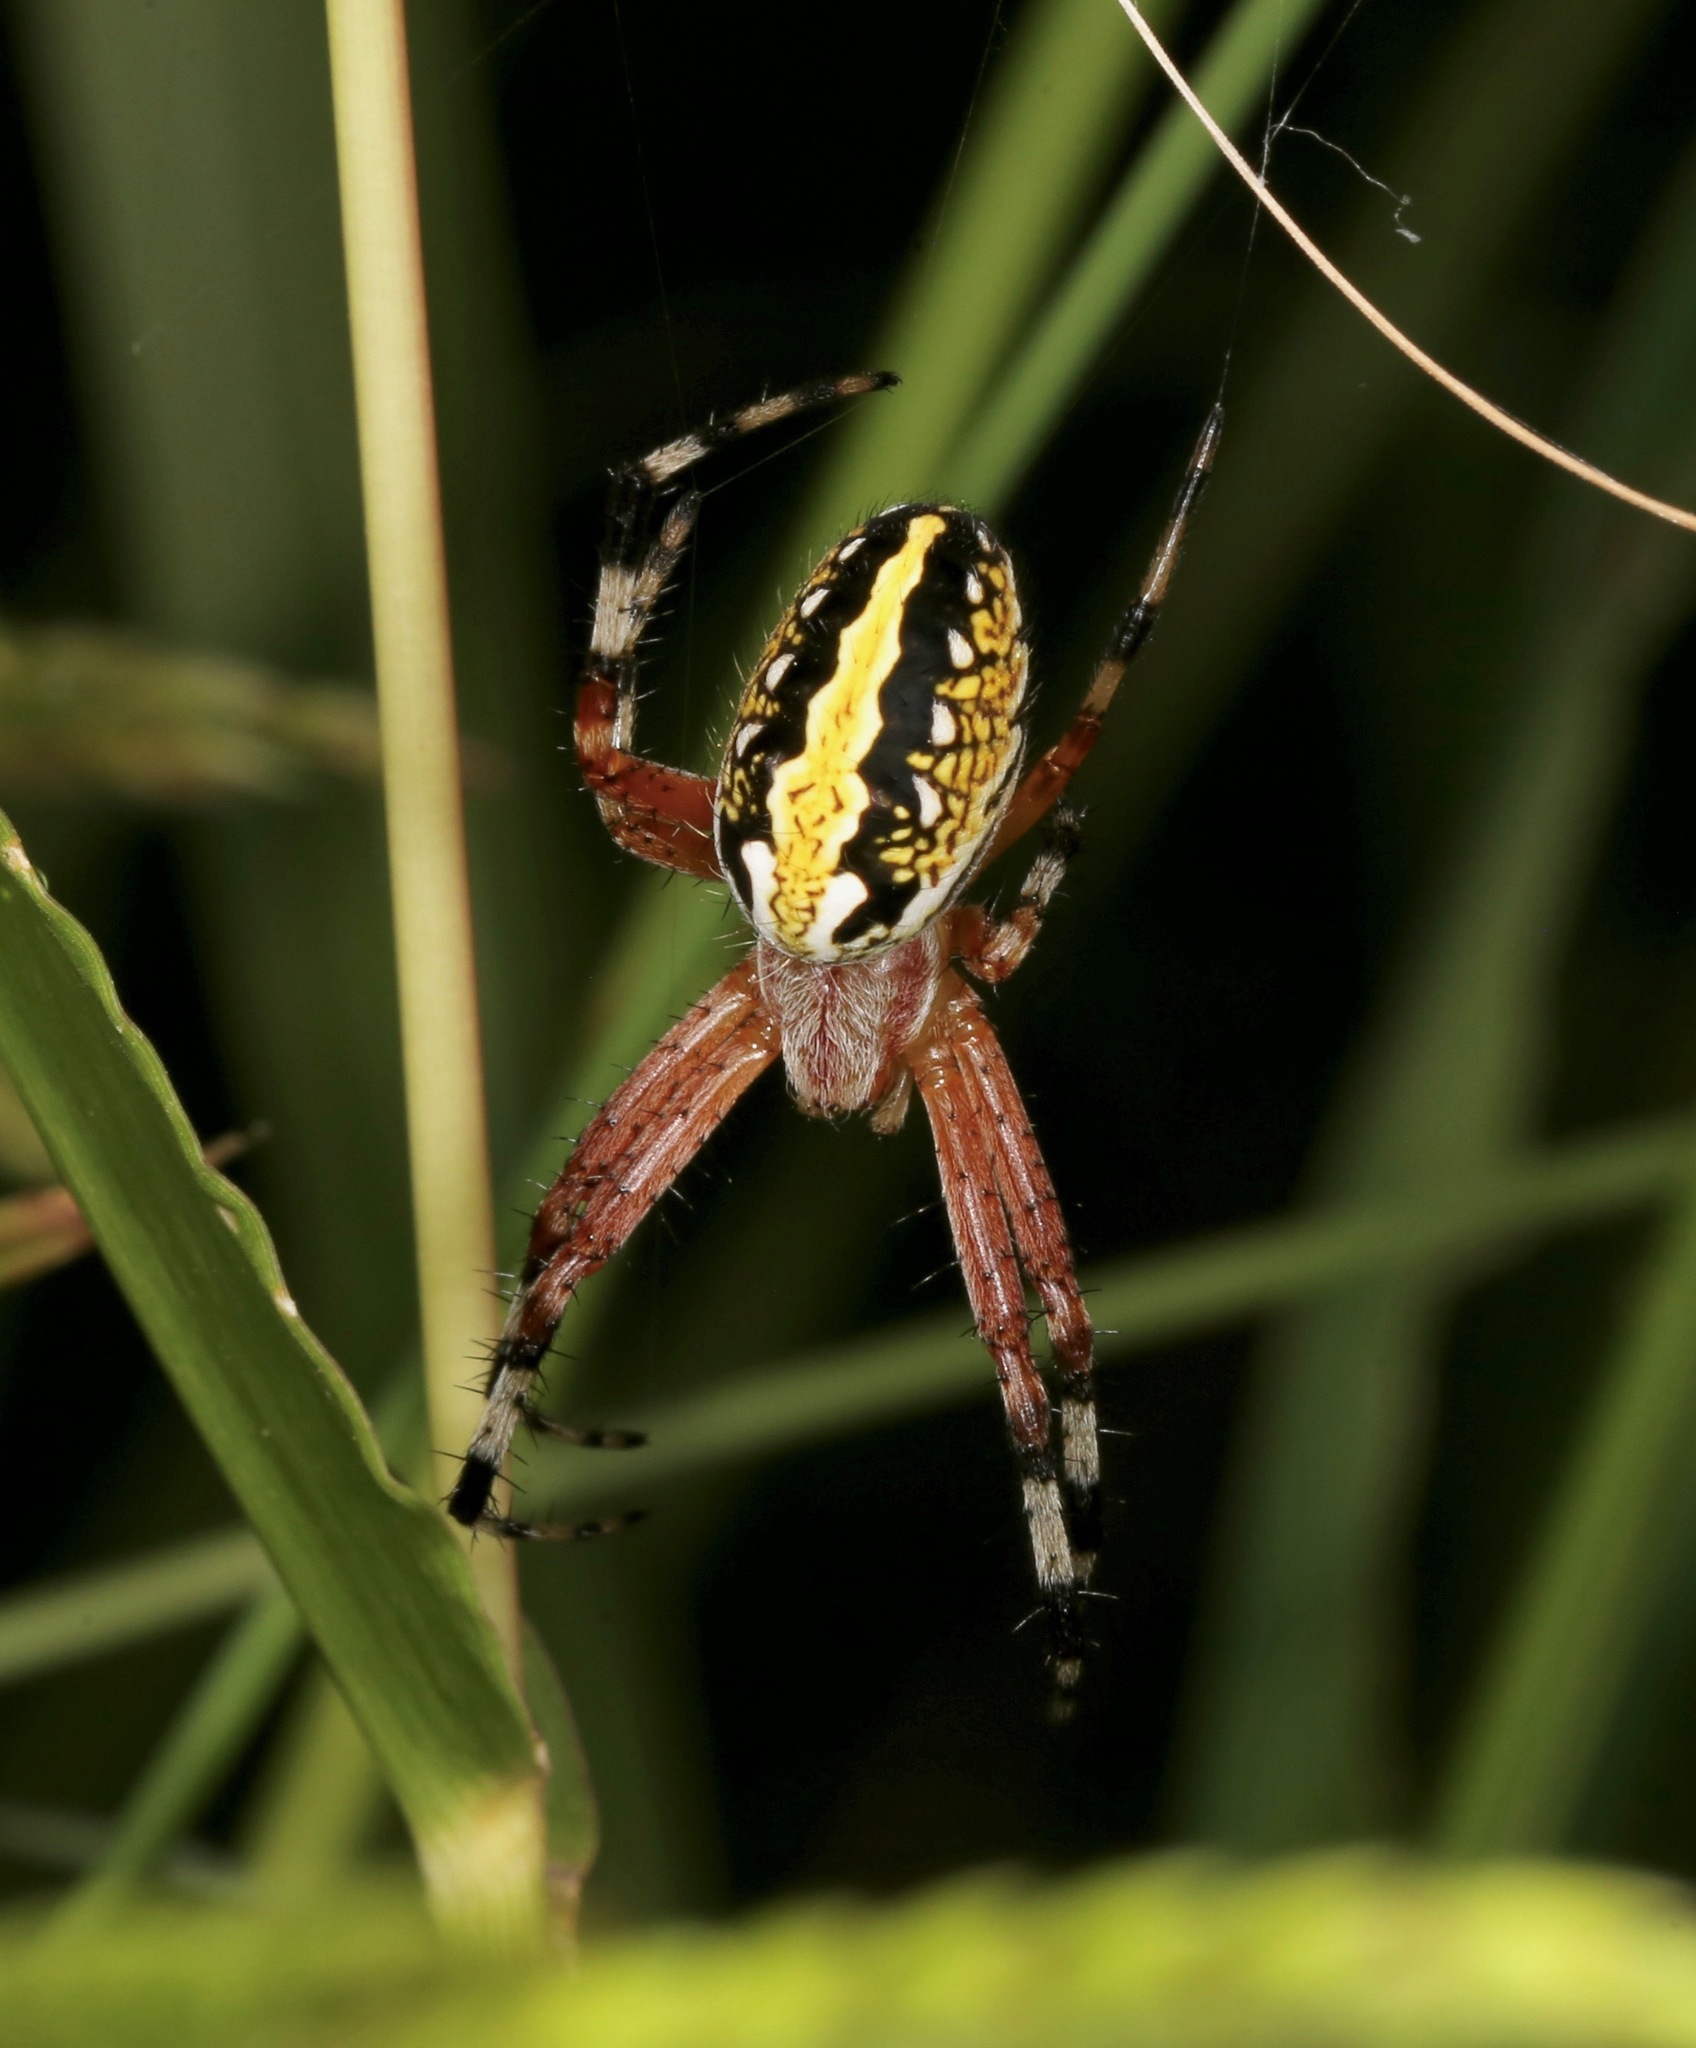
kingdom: Animalia
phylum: Arthropoda
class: Arachnida
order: Araneae
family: Araneidae
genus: Neoscona
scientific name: Neoscona oaxacensis
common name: Orb weavers
